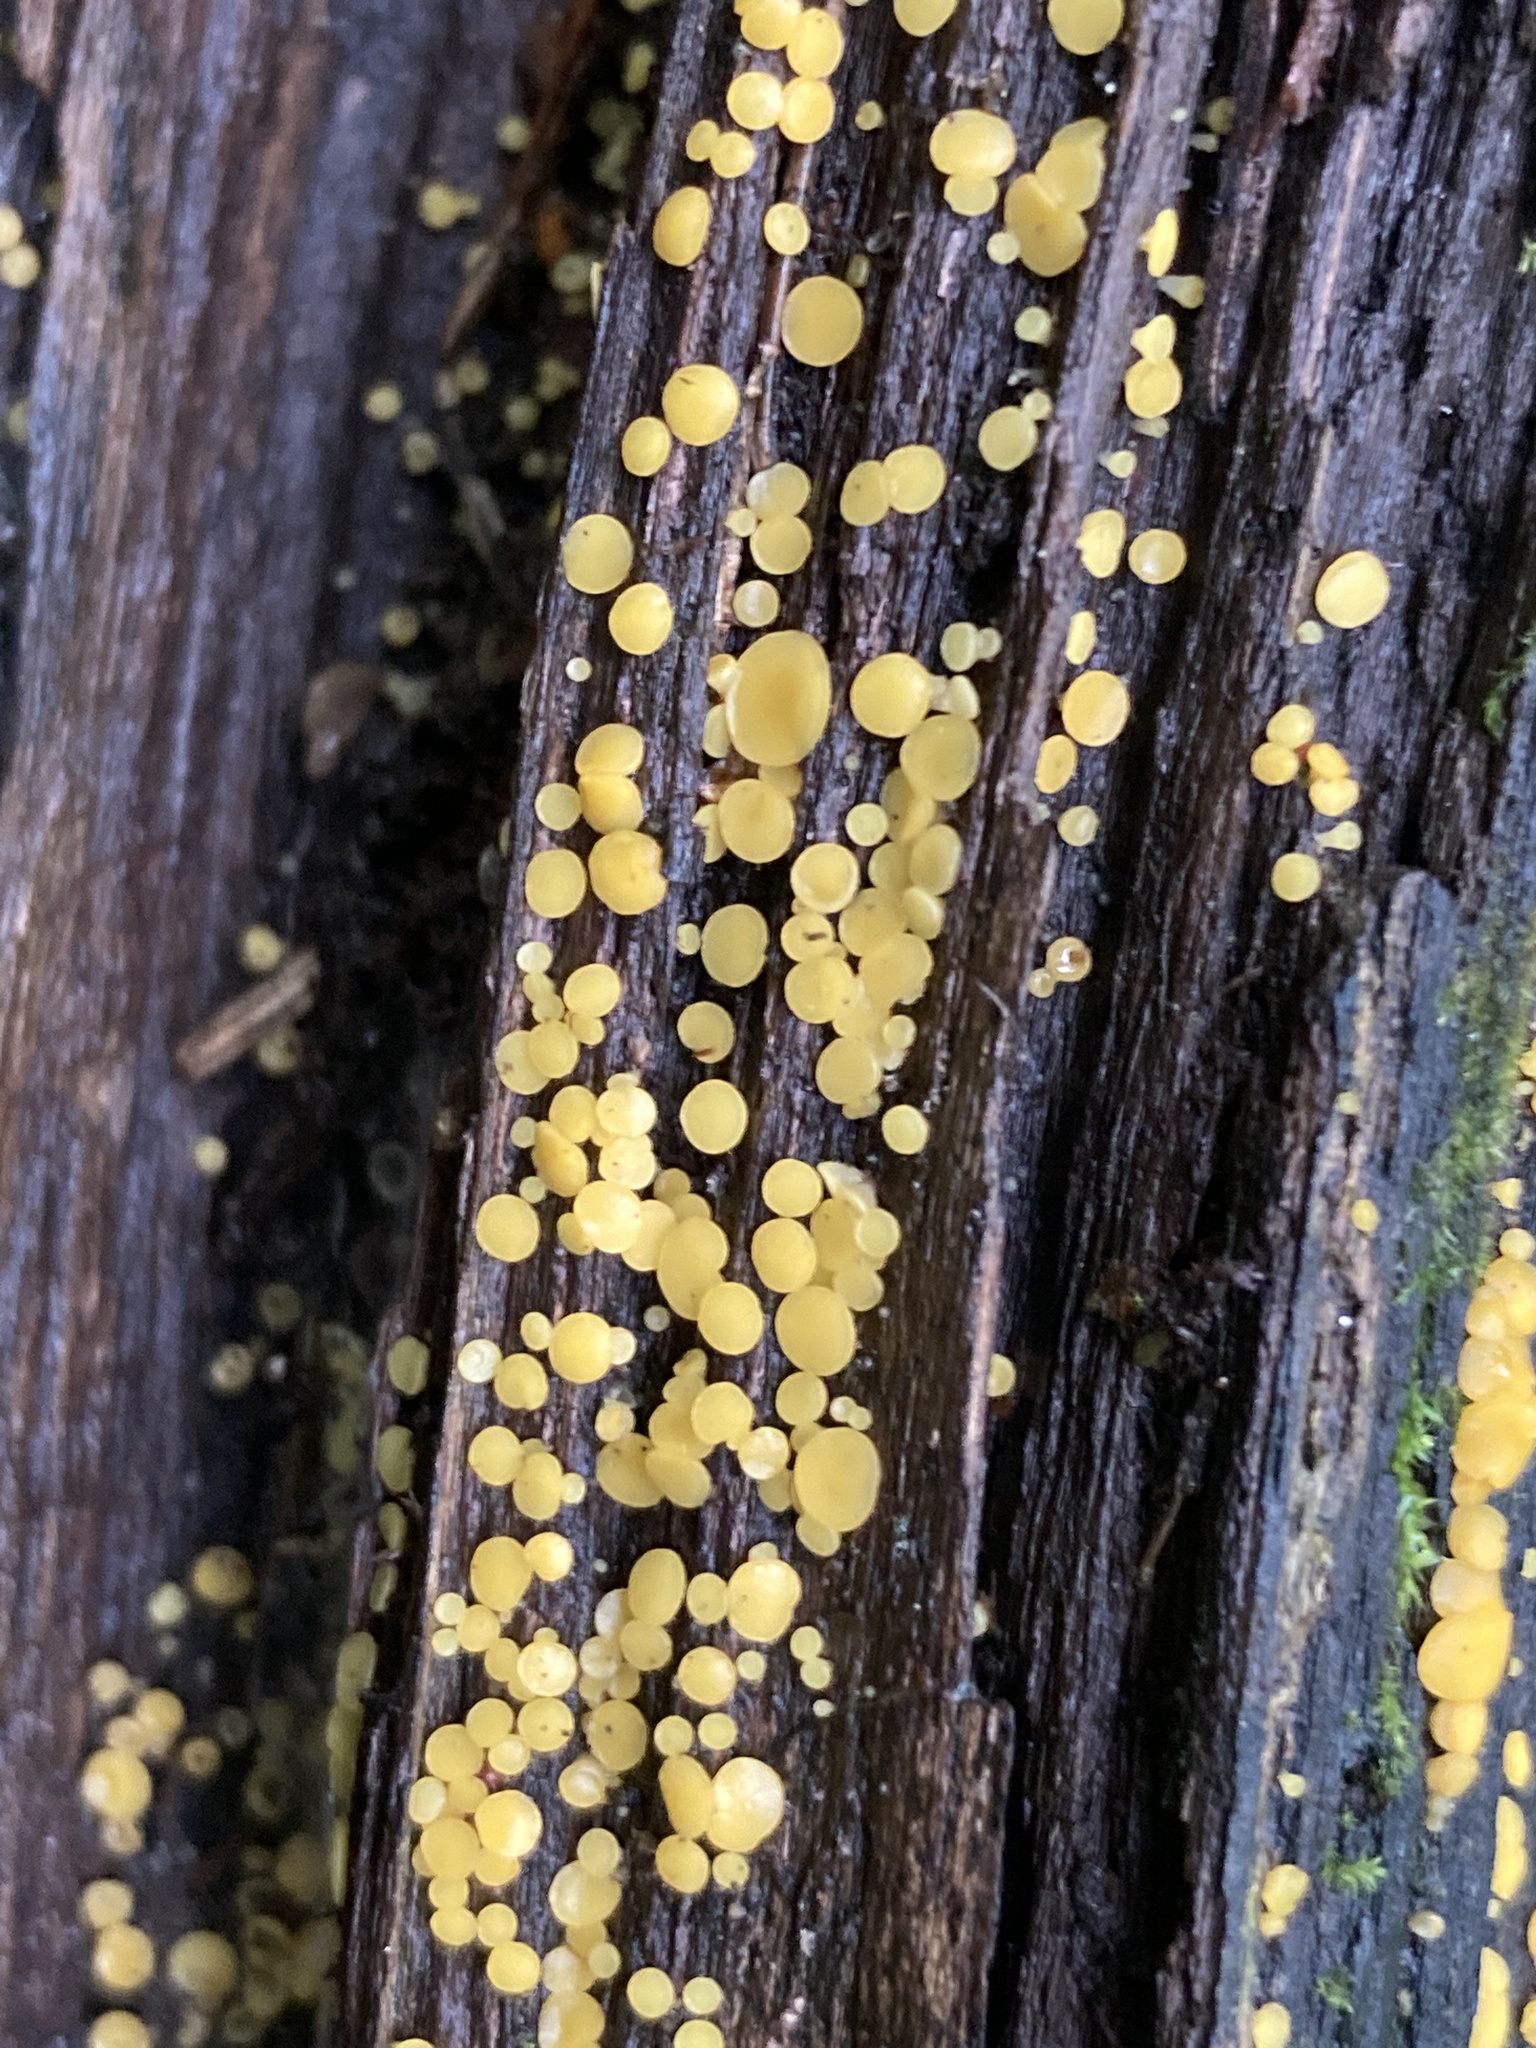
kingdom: Fungi
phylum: Ascomycota
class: Leotiomycetes
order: Helotiales
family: Pezizellaceae
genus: Calycina
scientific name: Calycina citrina
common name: Yellow fairy cups
